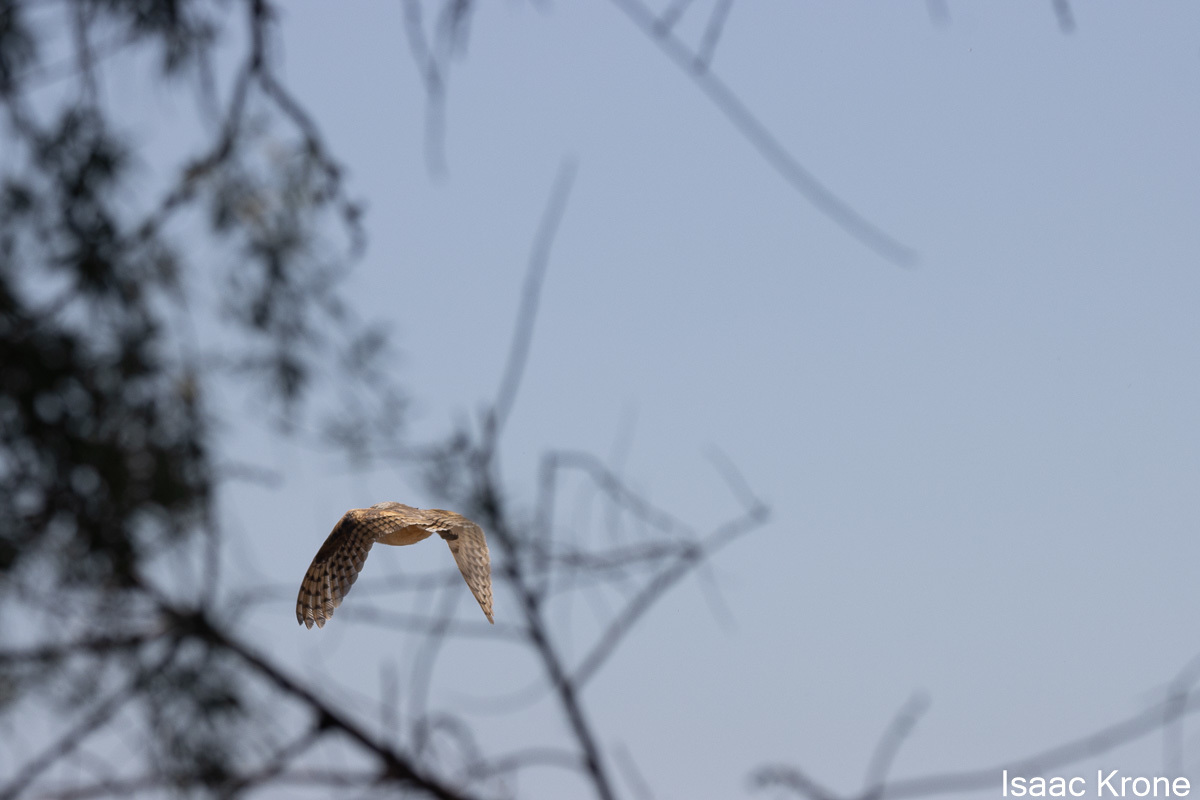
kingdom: Animalia
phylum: Chordata
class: Aves
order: Strigiformes
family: Tytonidae
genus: Tyto
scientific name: Tyto alba
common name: Barn owl
